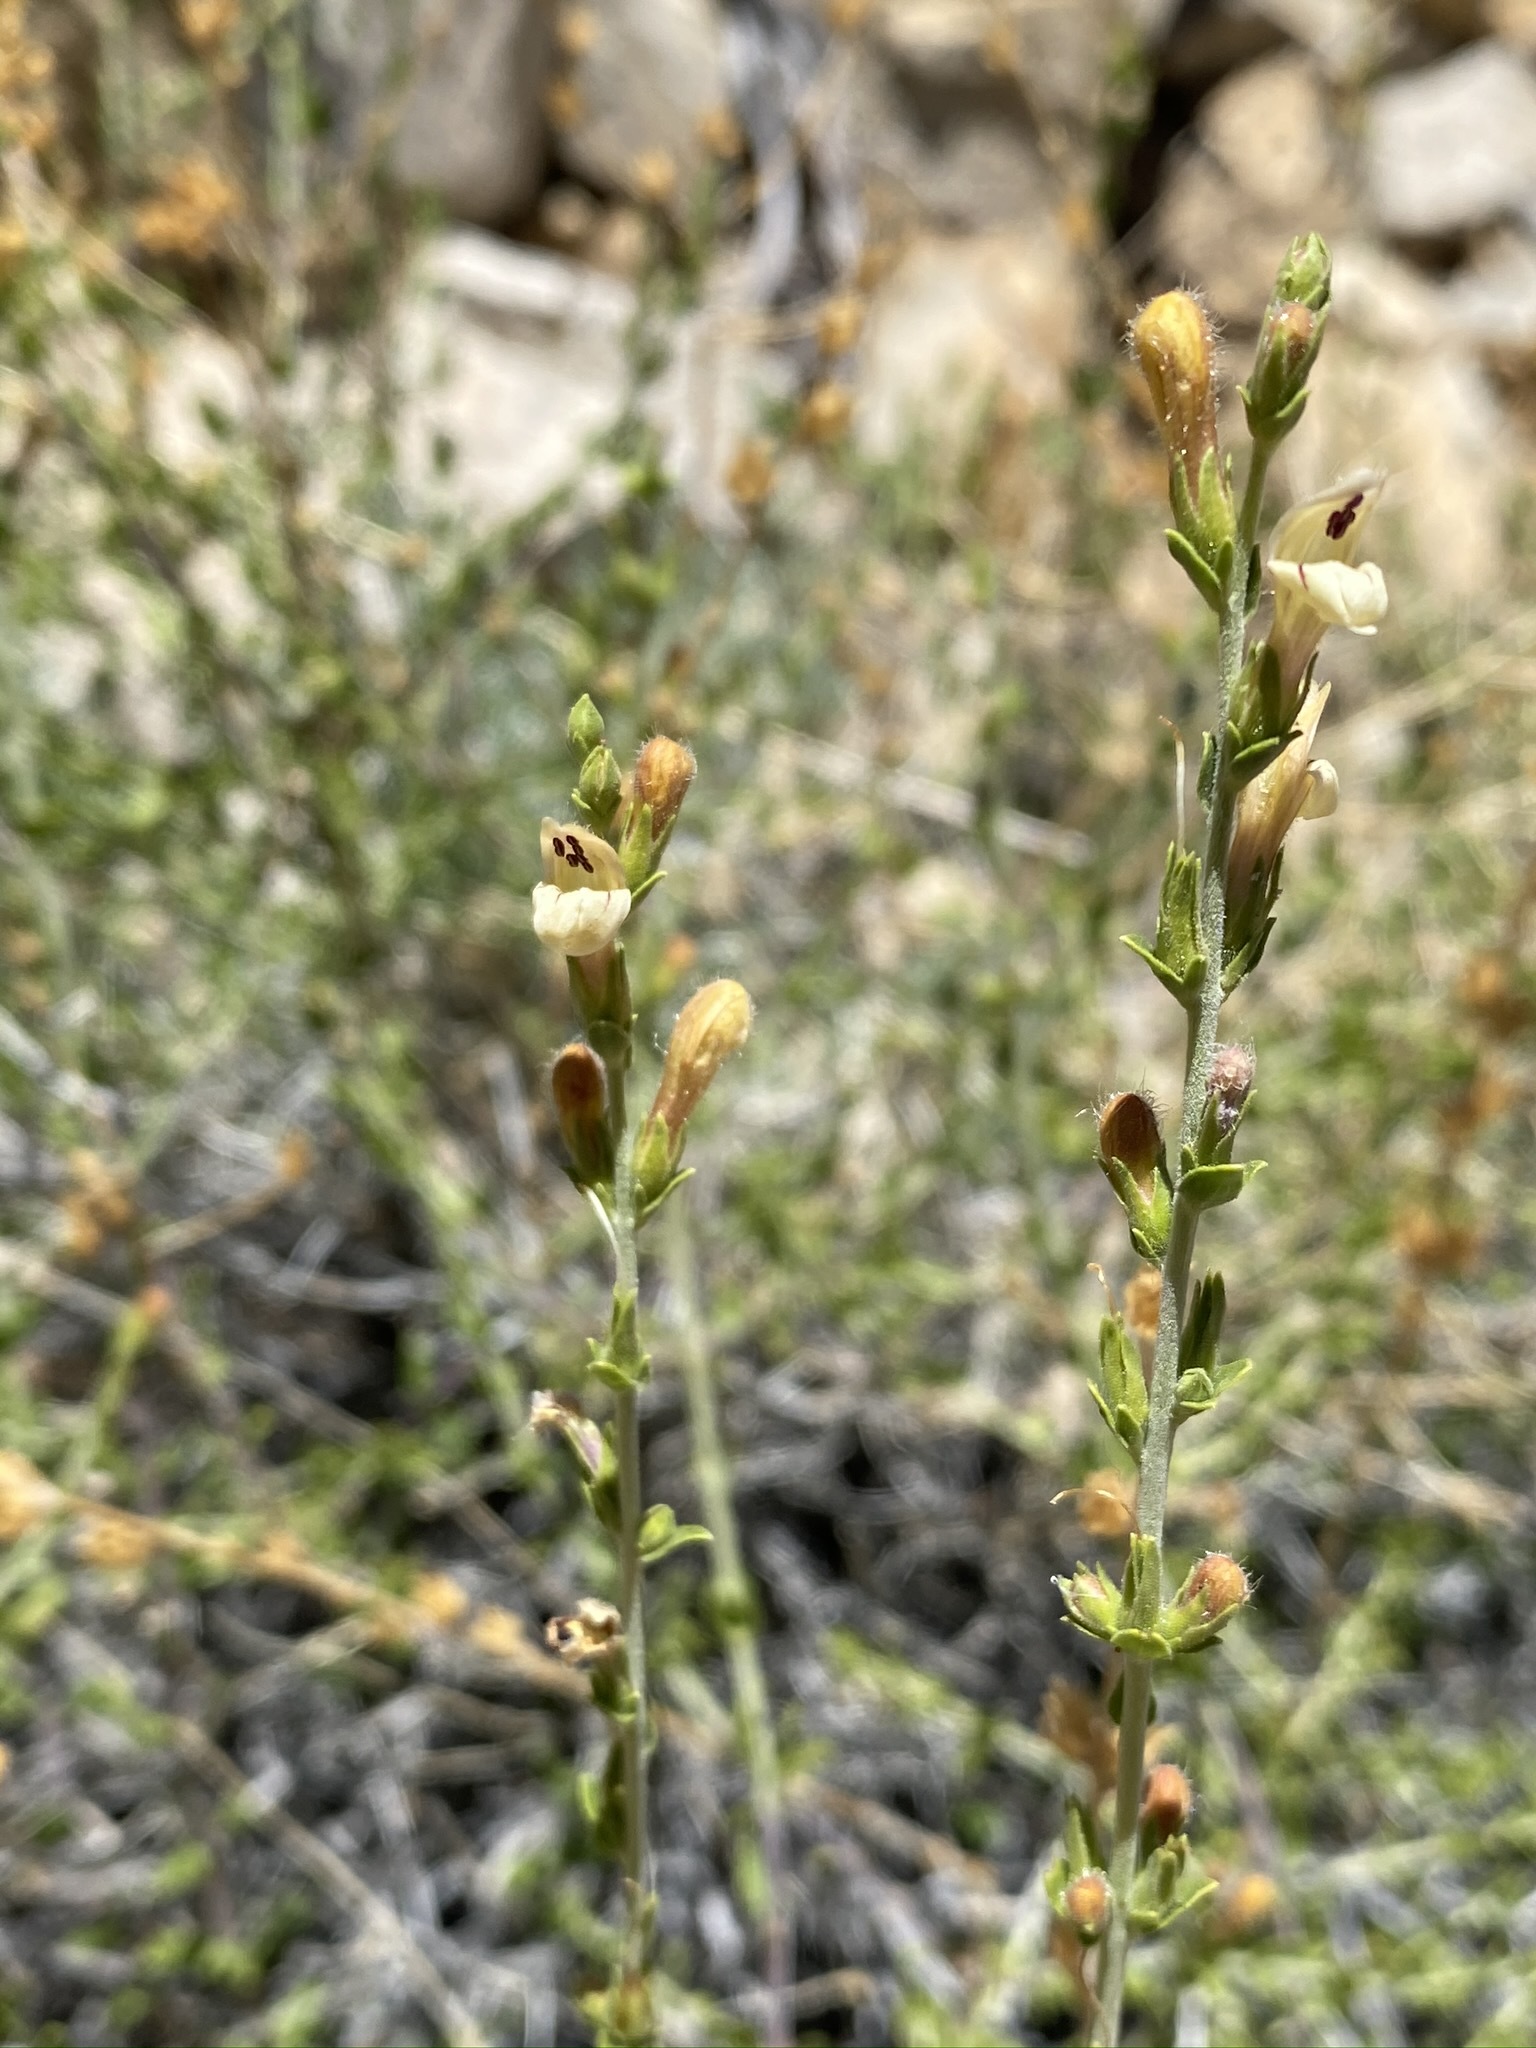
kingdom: Plantae
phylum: Tracheophyta
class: Magnoliopsida
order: Lamiales
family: Plantaginaceae
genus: Keckiella
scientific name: Keckiella rothrockii
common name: Rothrock's keckiella
